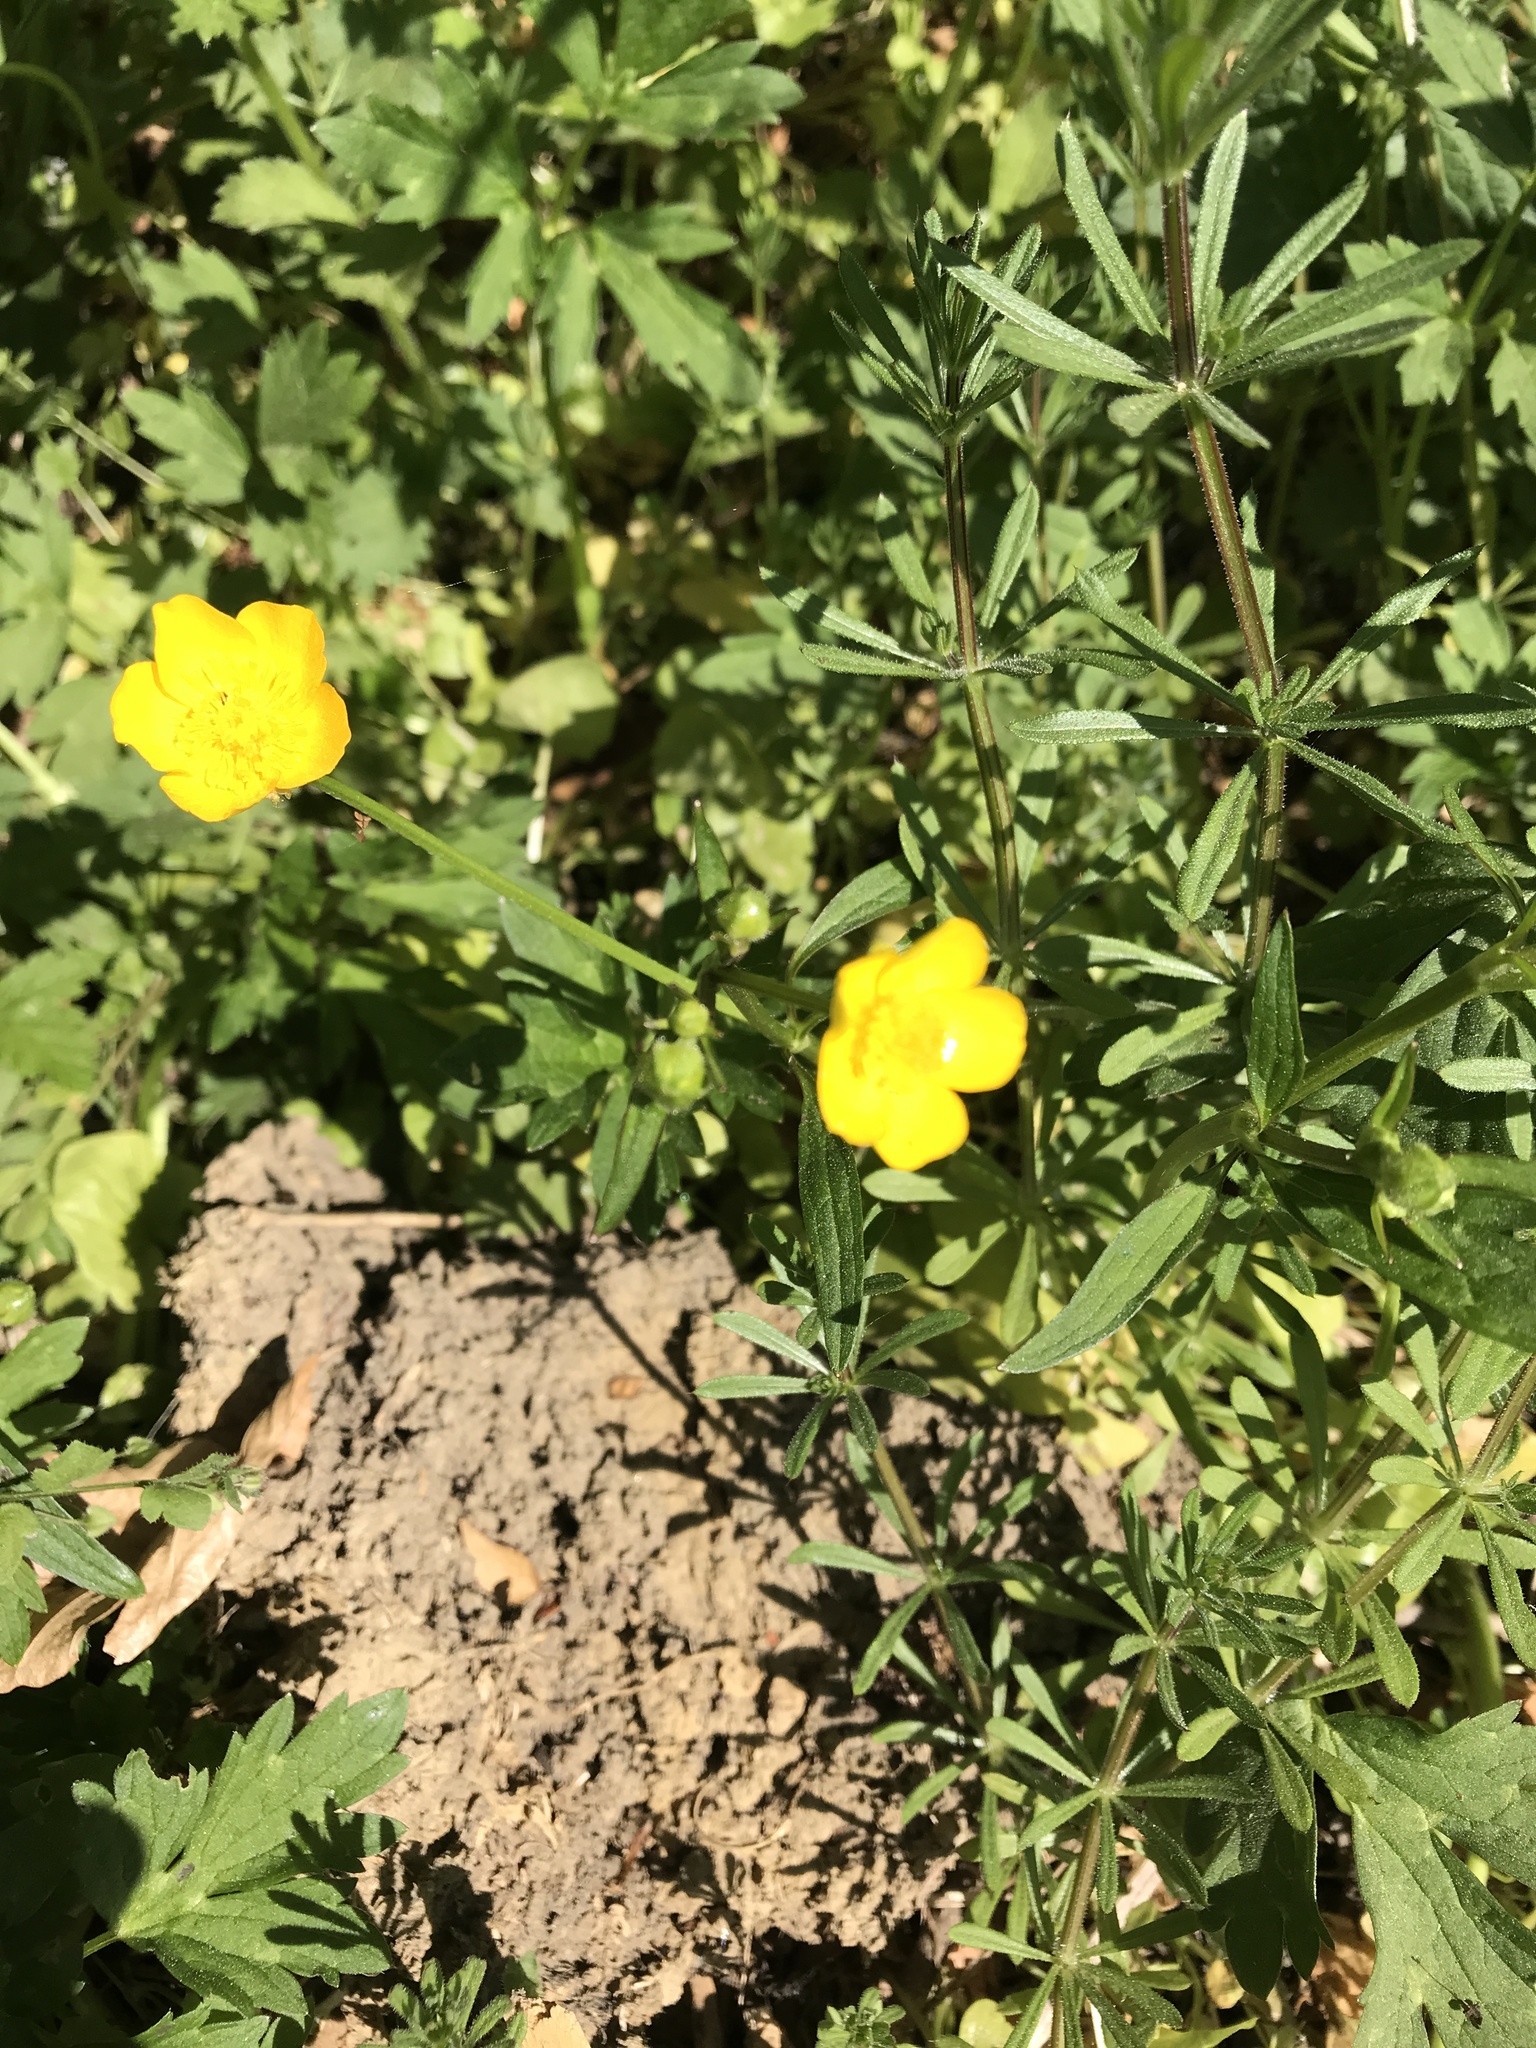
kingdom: Plantae
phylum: Tracheophyta
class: Magnoliopsida
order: Ranunculales
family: Ranunculaceae
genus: Ranunculus
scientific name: Ranunculus repens
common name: Creeping buttercup
